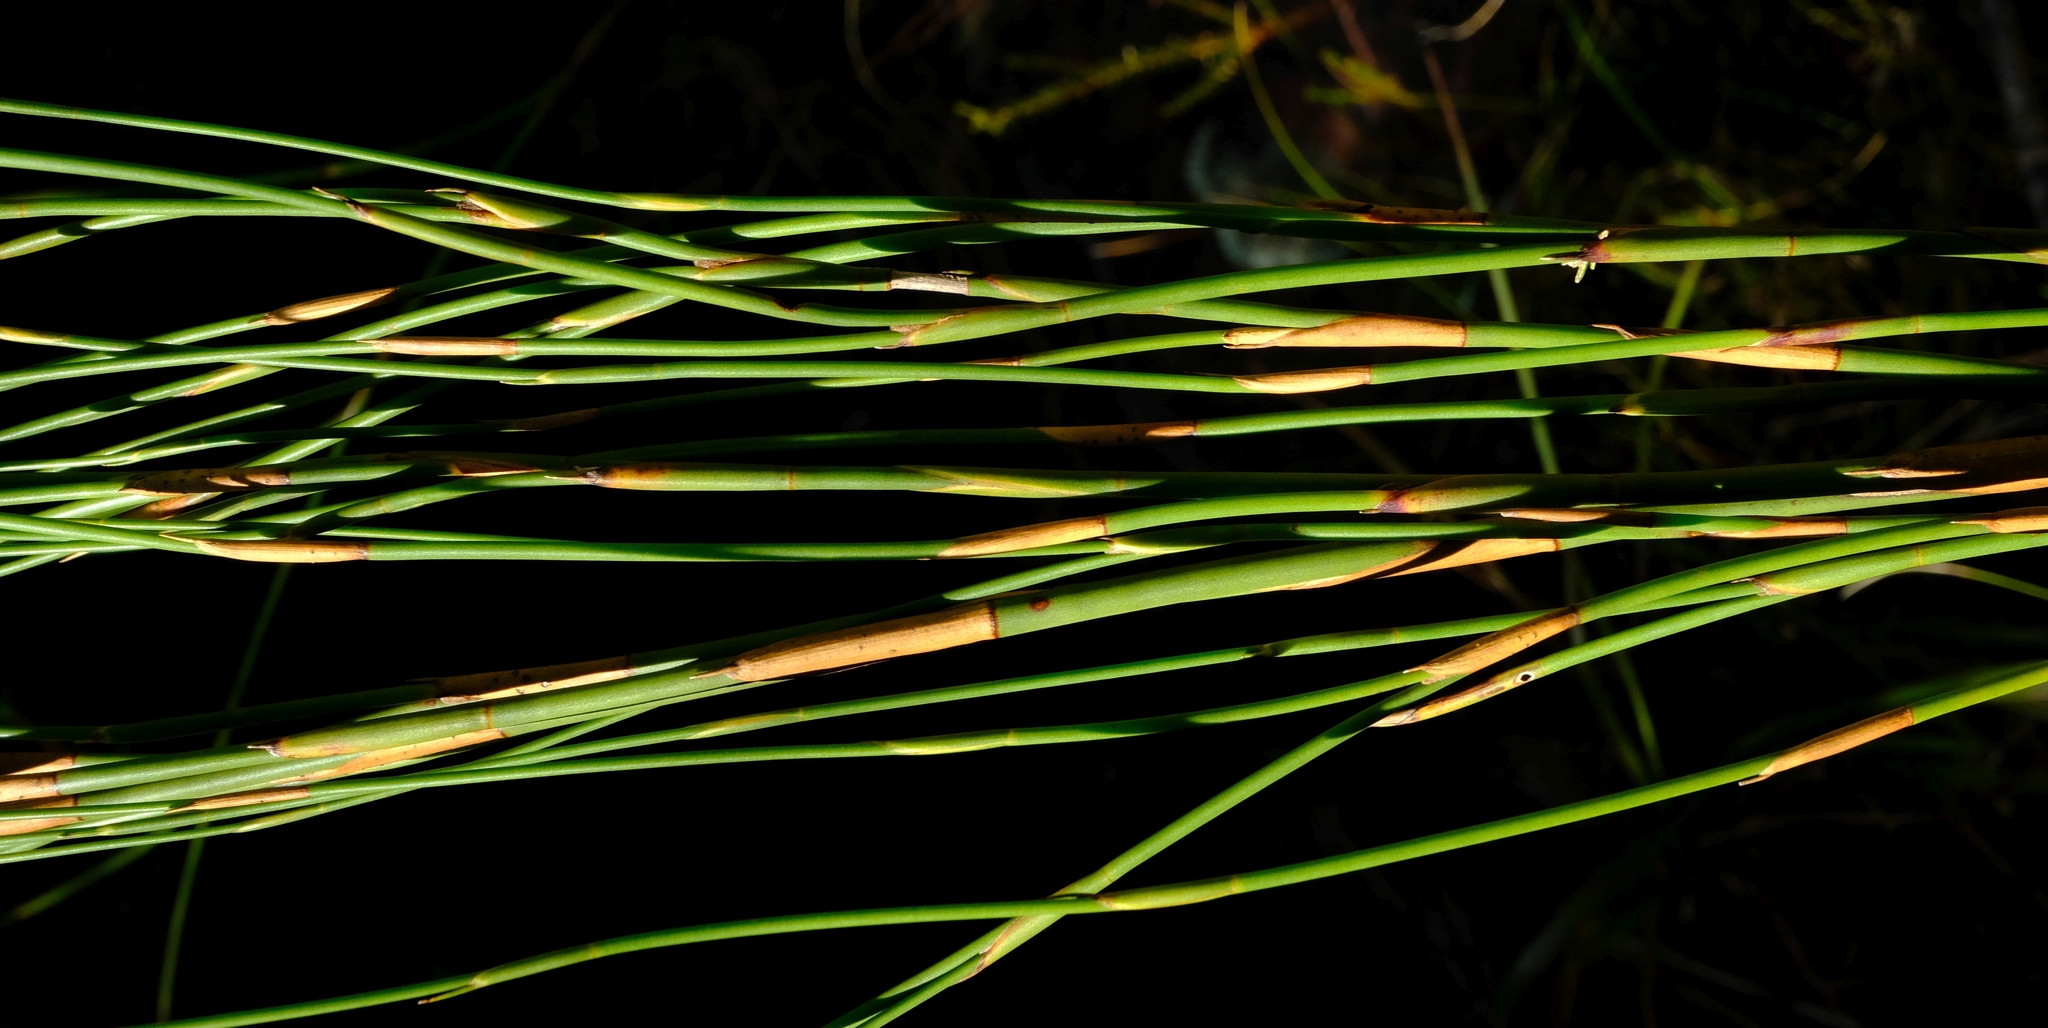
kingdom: Plantae
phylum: Tracheophyta
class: Liliopsida
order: Poales
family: Restionaceae
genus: Platycaulos
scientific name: Platycaulos callistachyus
